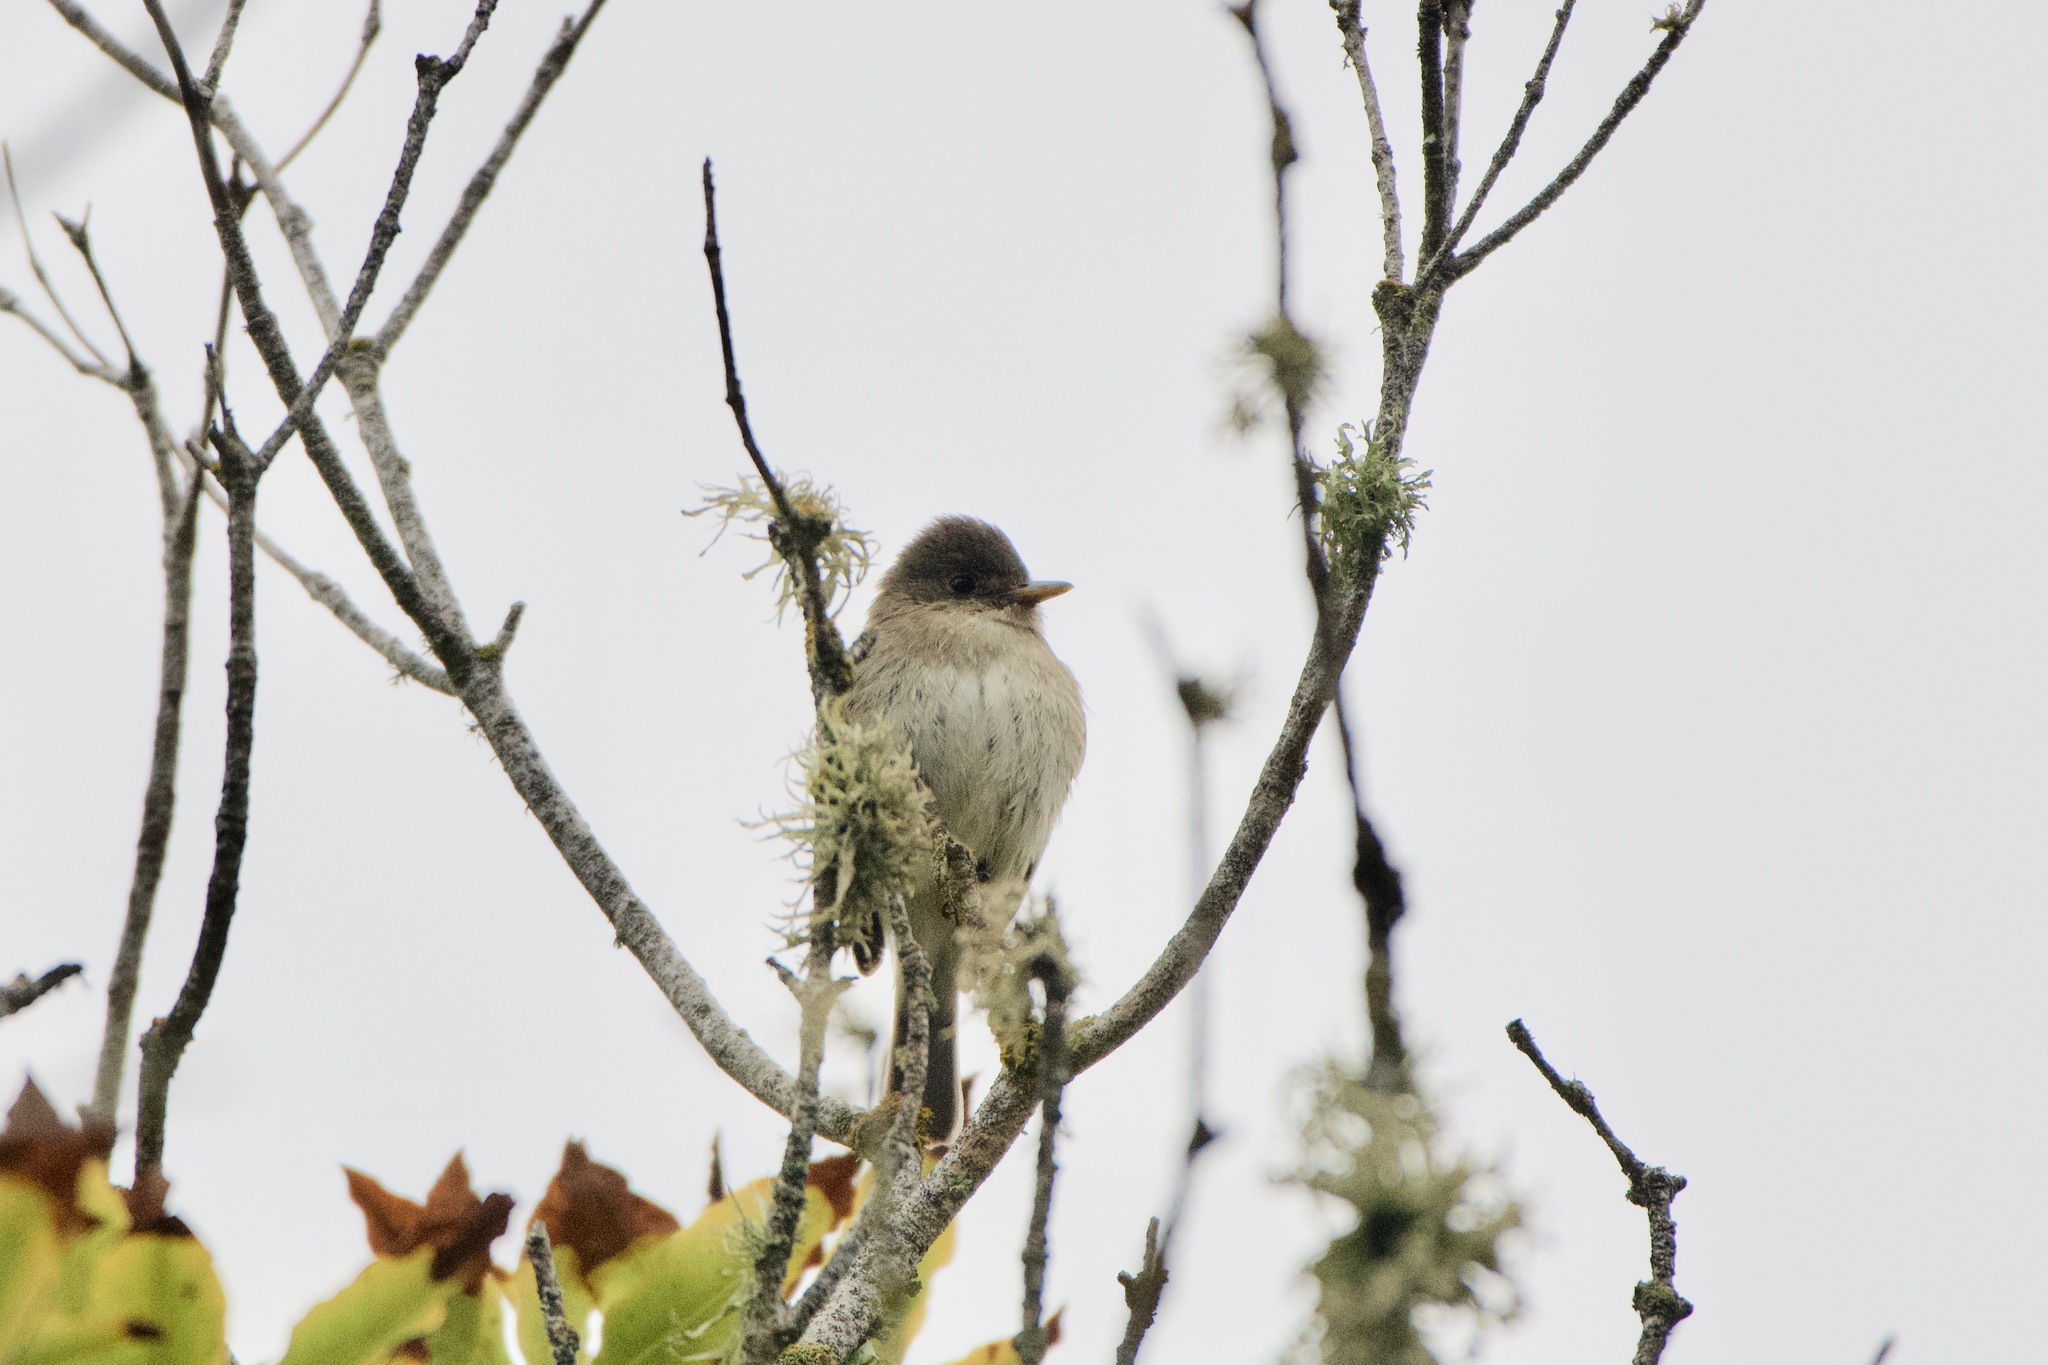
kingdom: Animalia
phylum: Chordata
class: Aves
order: Passeriformes
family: Tyrannidae
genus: Empidonax
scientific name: Empidonax traillii
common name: Willow flycatcher
